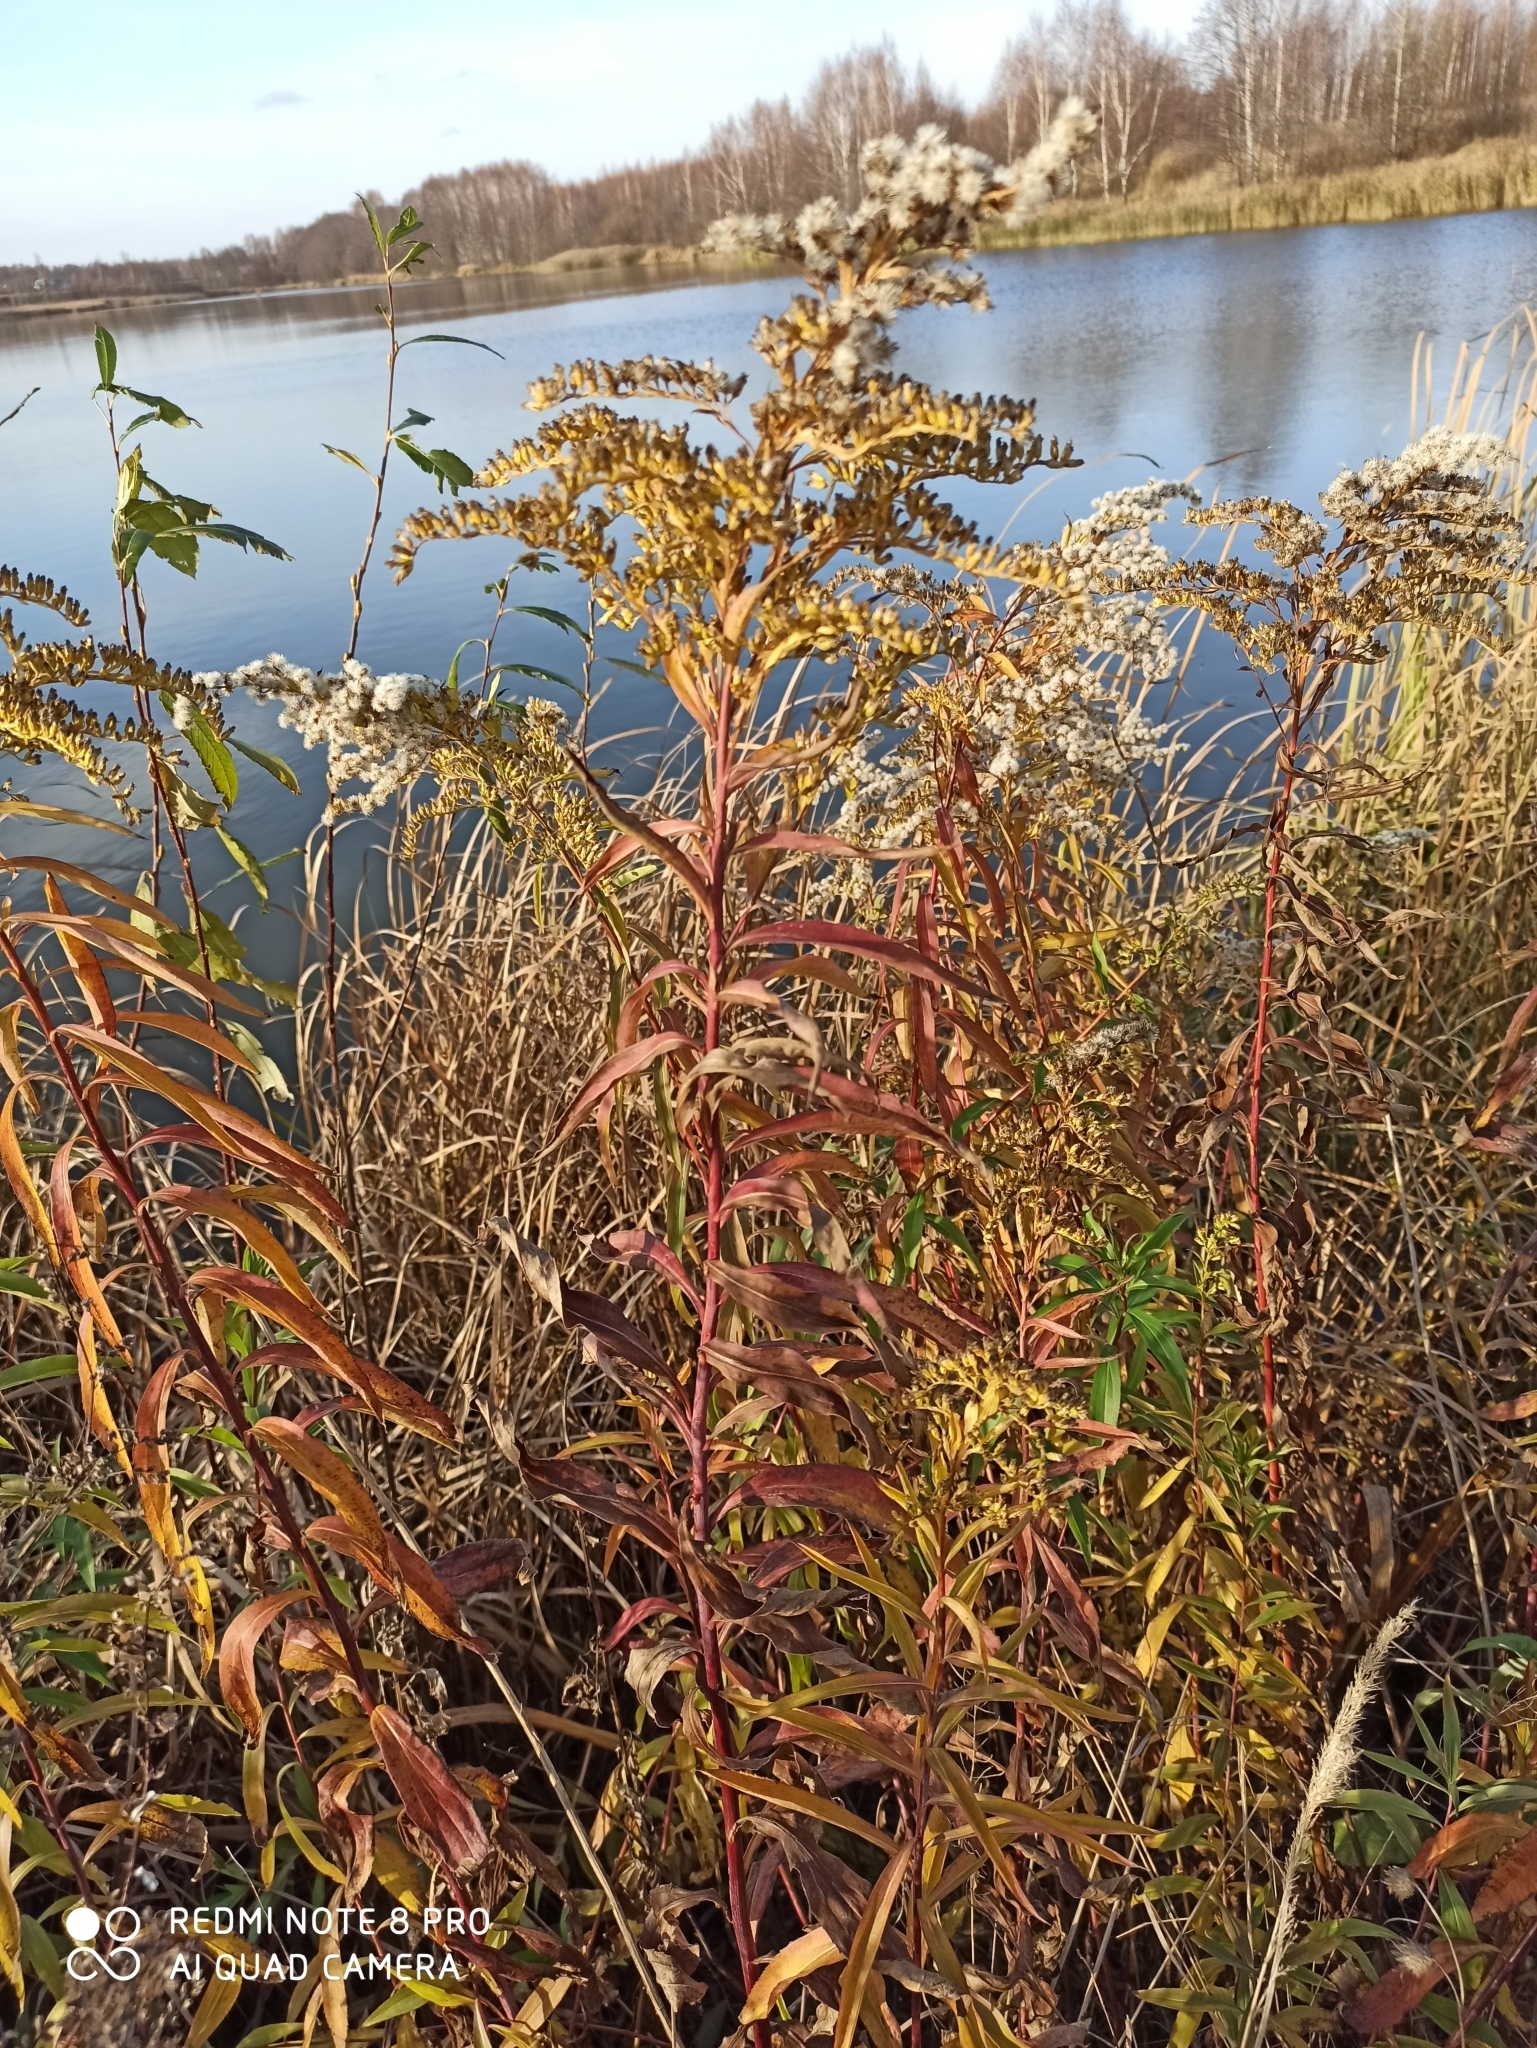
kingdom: Plantae
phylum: Tracheophyta
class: Magnoliopsida
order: Asterales
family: Asteraceae
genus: Solidago
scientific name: Solidago gigantea
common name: Giant goldenrod
